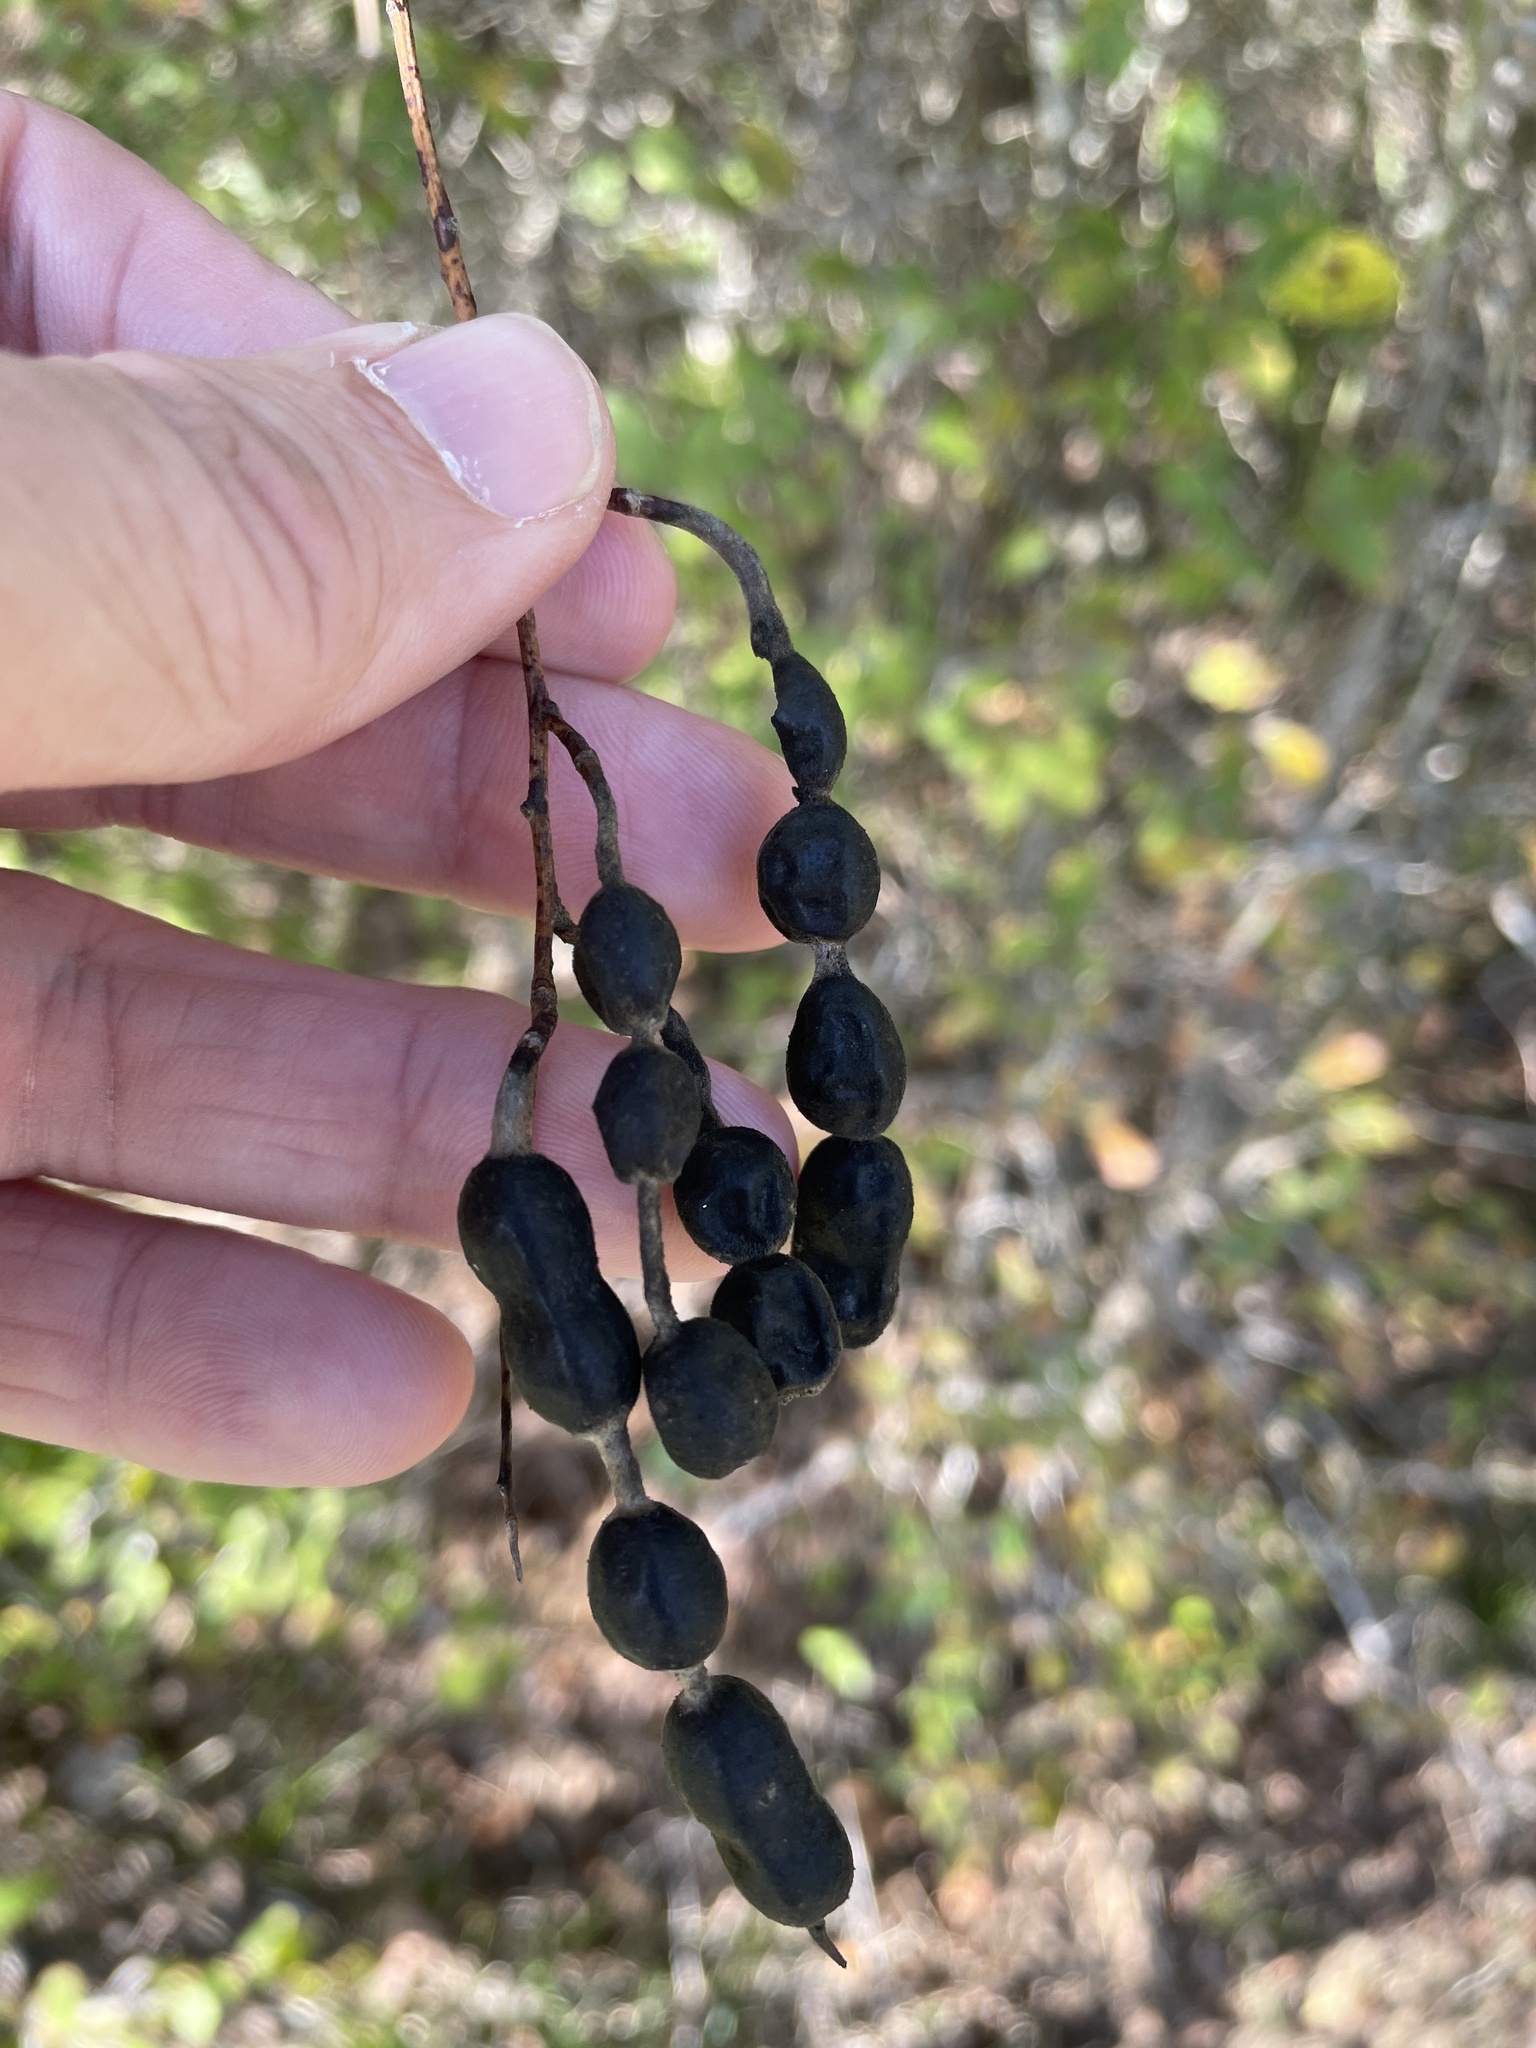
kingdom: Plantae
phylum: Tracheophyta
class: Magnoliopsida
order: Fabales
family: Fabaceae
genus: Styphnolobium
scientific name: Styphnolobium affine
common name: Texas sophora
